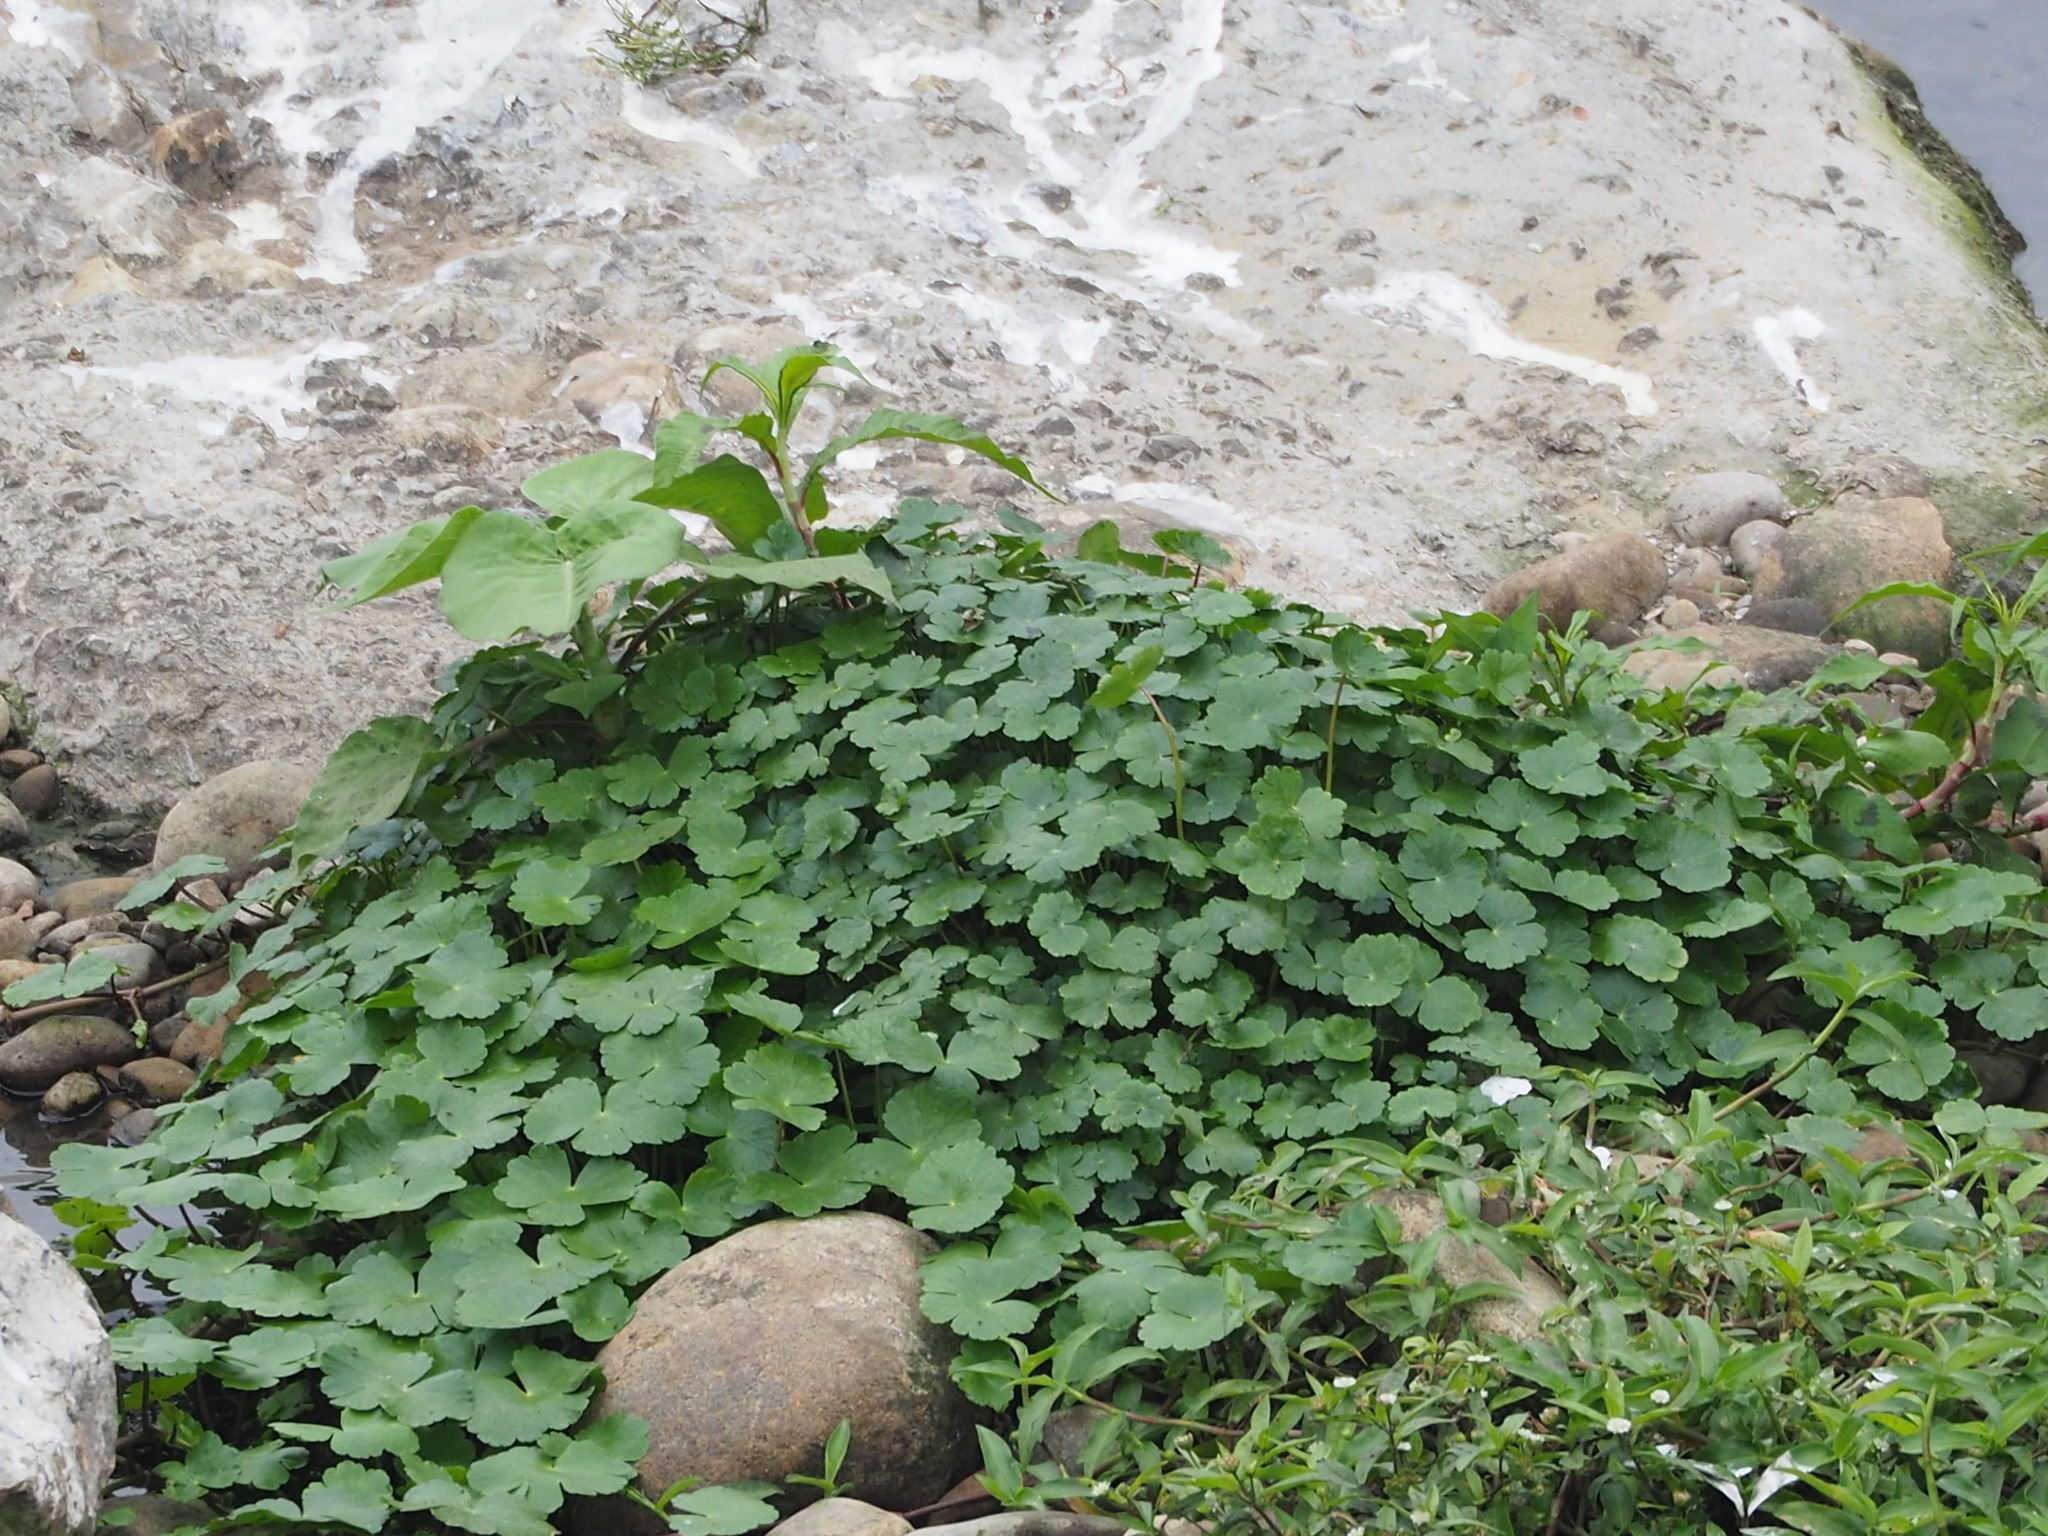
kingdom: Plantae
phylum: Tracheophyta
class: Magnoliopsida
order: Apiales
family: Araliaceae
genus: Hydrocotyle
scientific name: Hydrocotyle ranunculoides
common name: Floating pennywort
